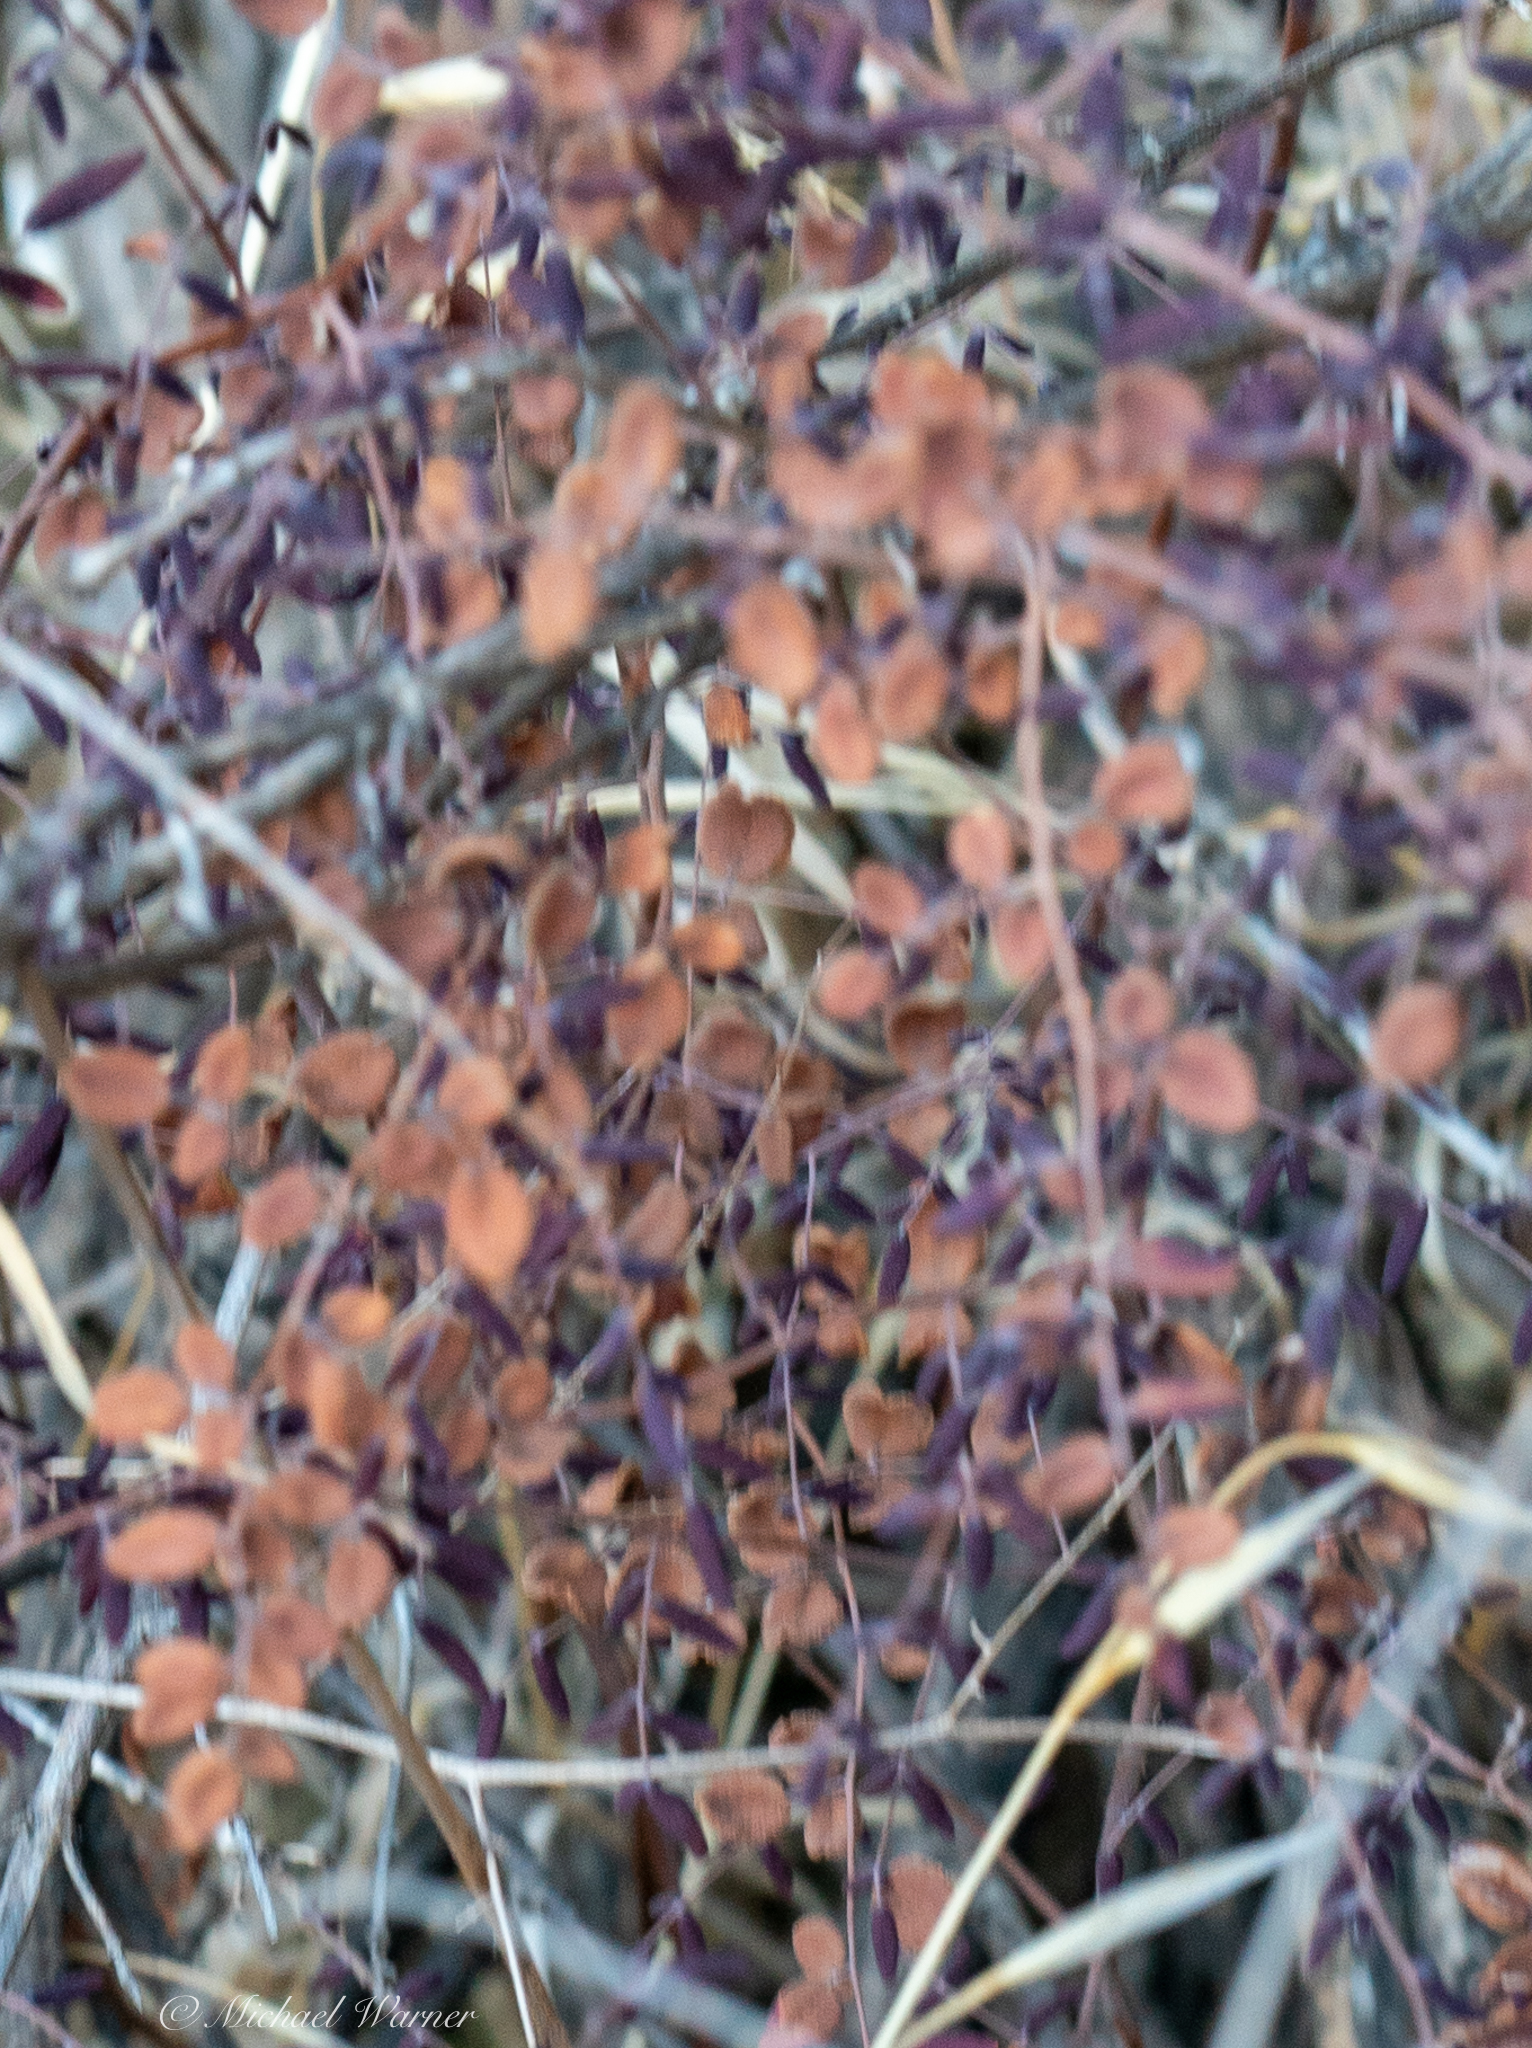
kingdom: Plantae
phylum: Tracheophyta
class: Polypodiopsida
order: Polypodiales
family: Pteridaceae
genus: Pellaea
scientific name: Pellaea andromedifolia
